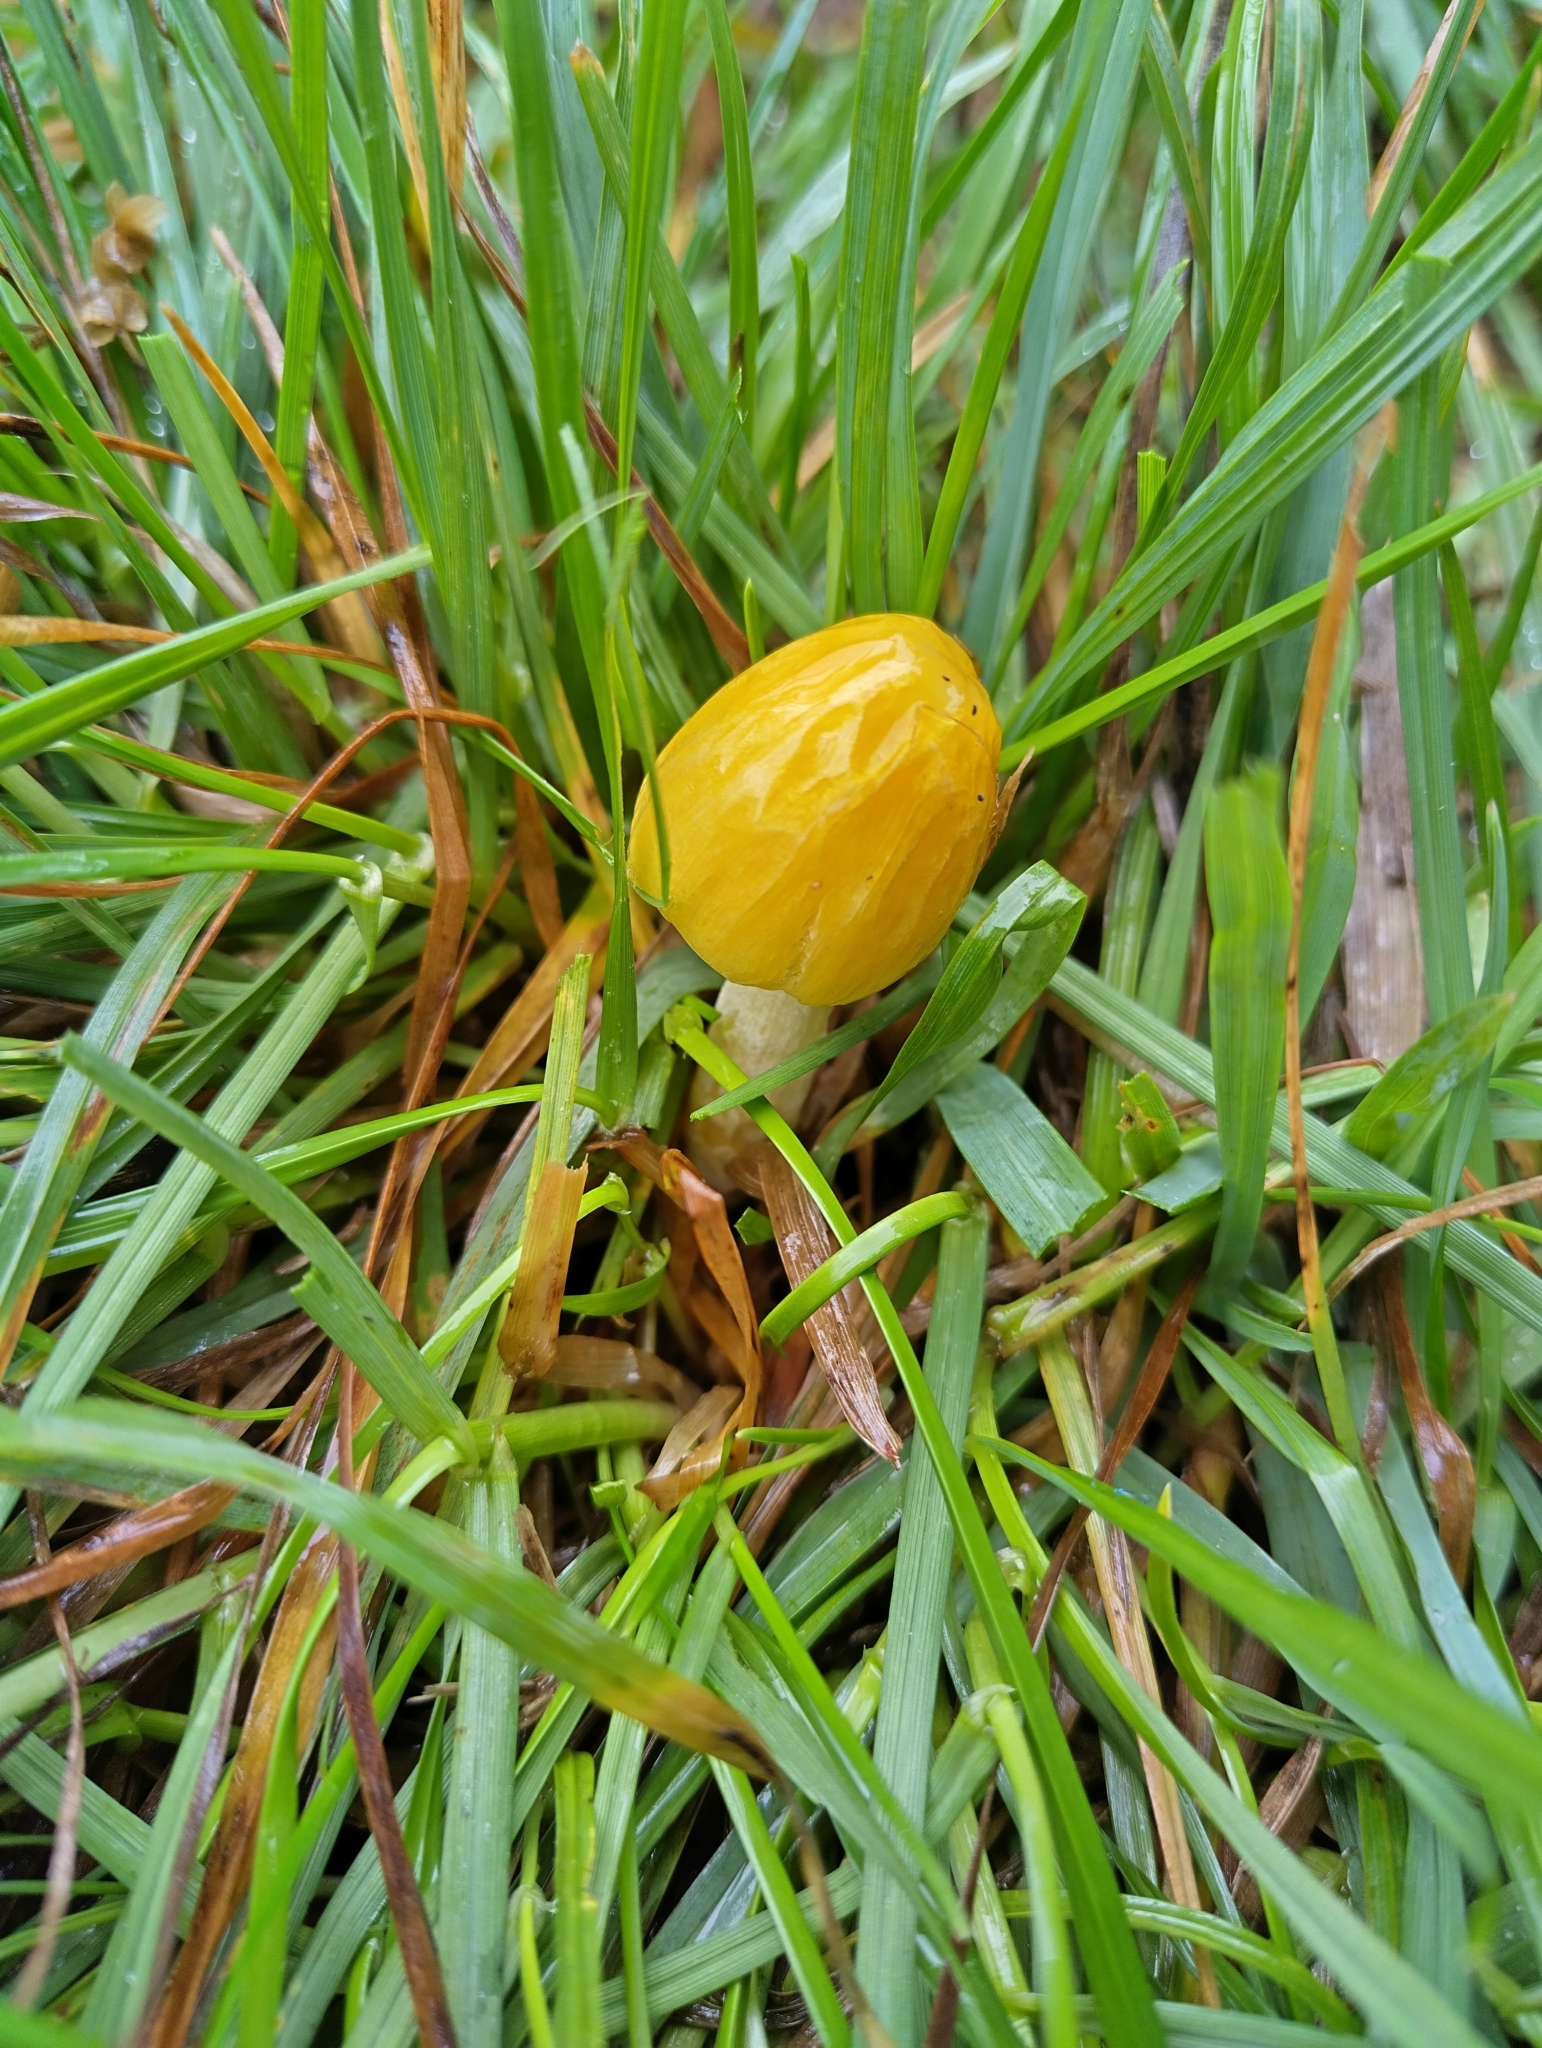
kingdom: Fungi
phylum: Basidiomycota
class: Agaricomycetes
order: Agaricales
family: Bolbitiaceae
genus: Bolbitius
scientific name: Bolbitius titubans
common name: Yellow fieldcap
